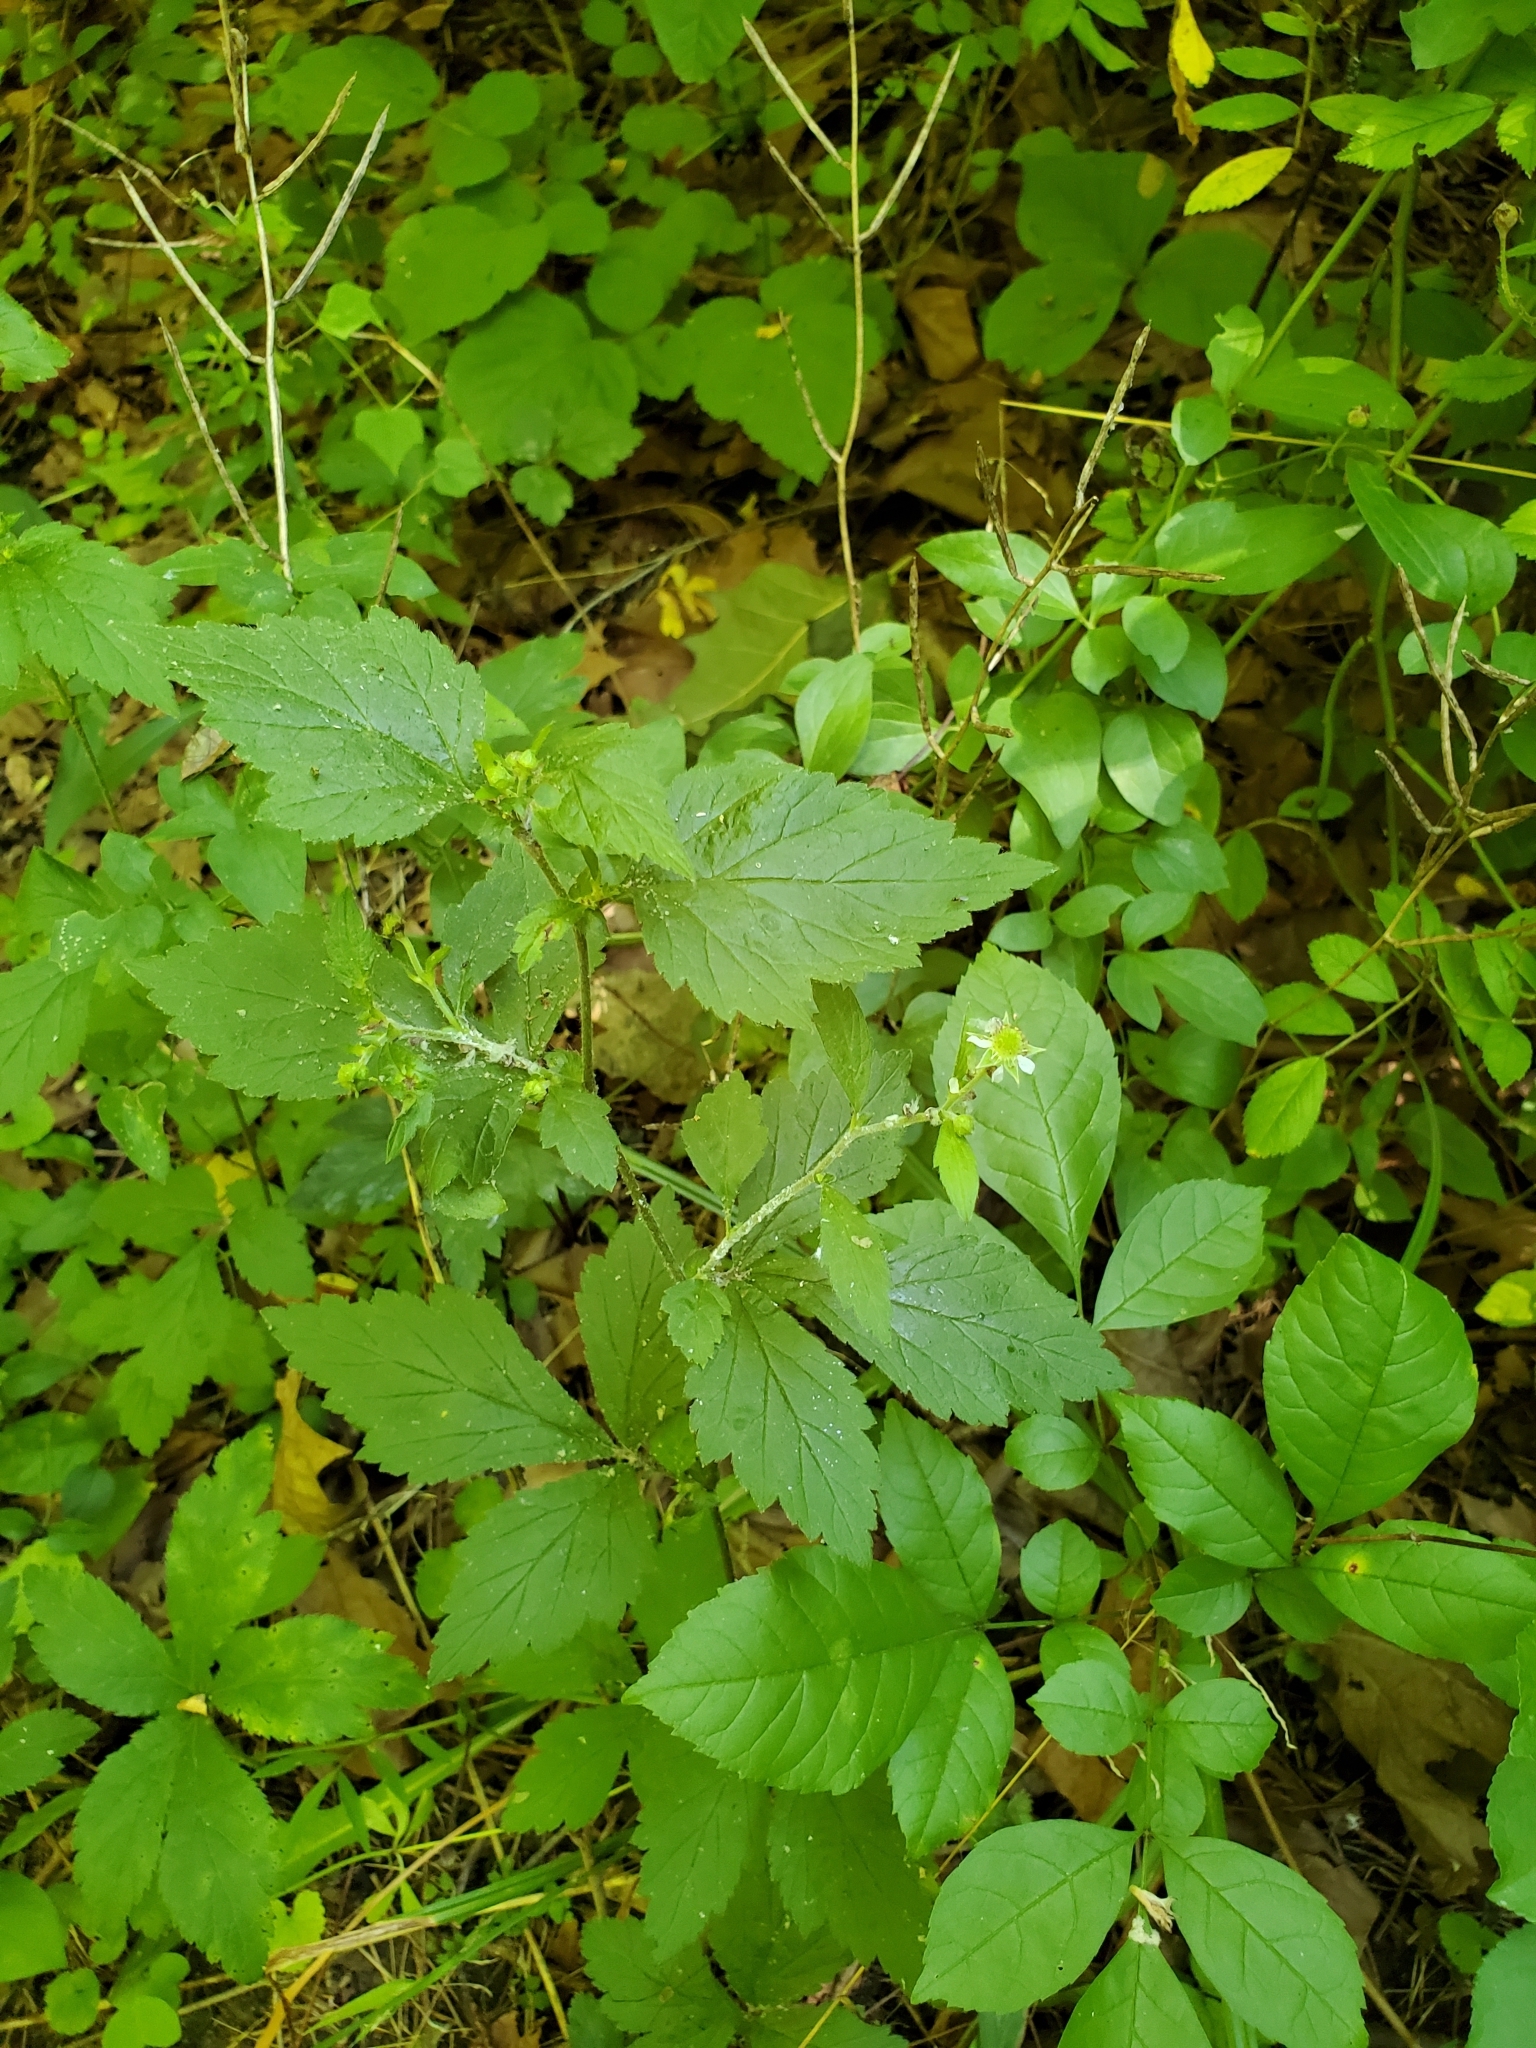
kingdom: Plantae
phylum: Tracheophyta
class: Magnoliopsida
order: Rosales
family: Rosaceae
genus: Geum
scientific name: Geum canadense
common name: White avens
